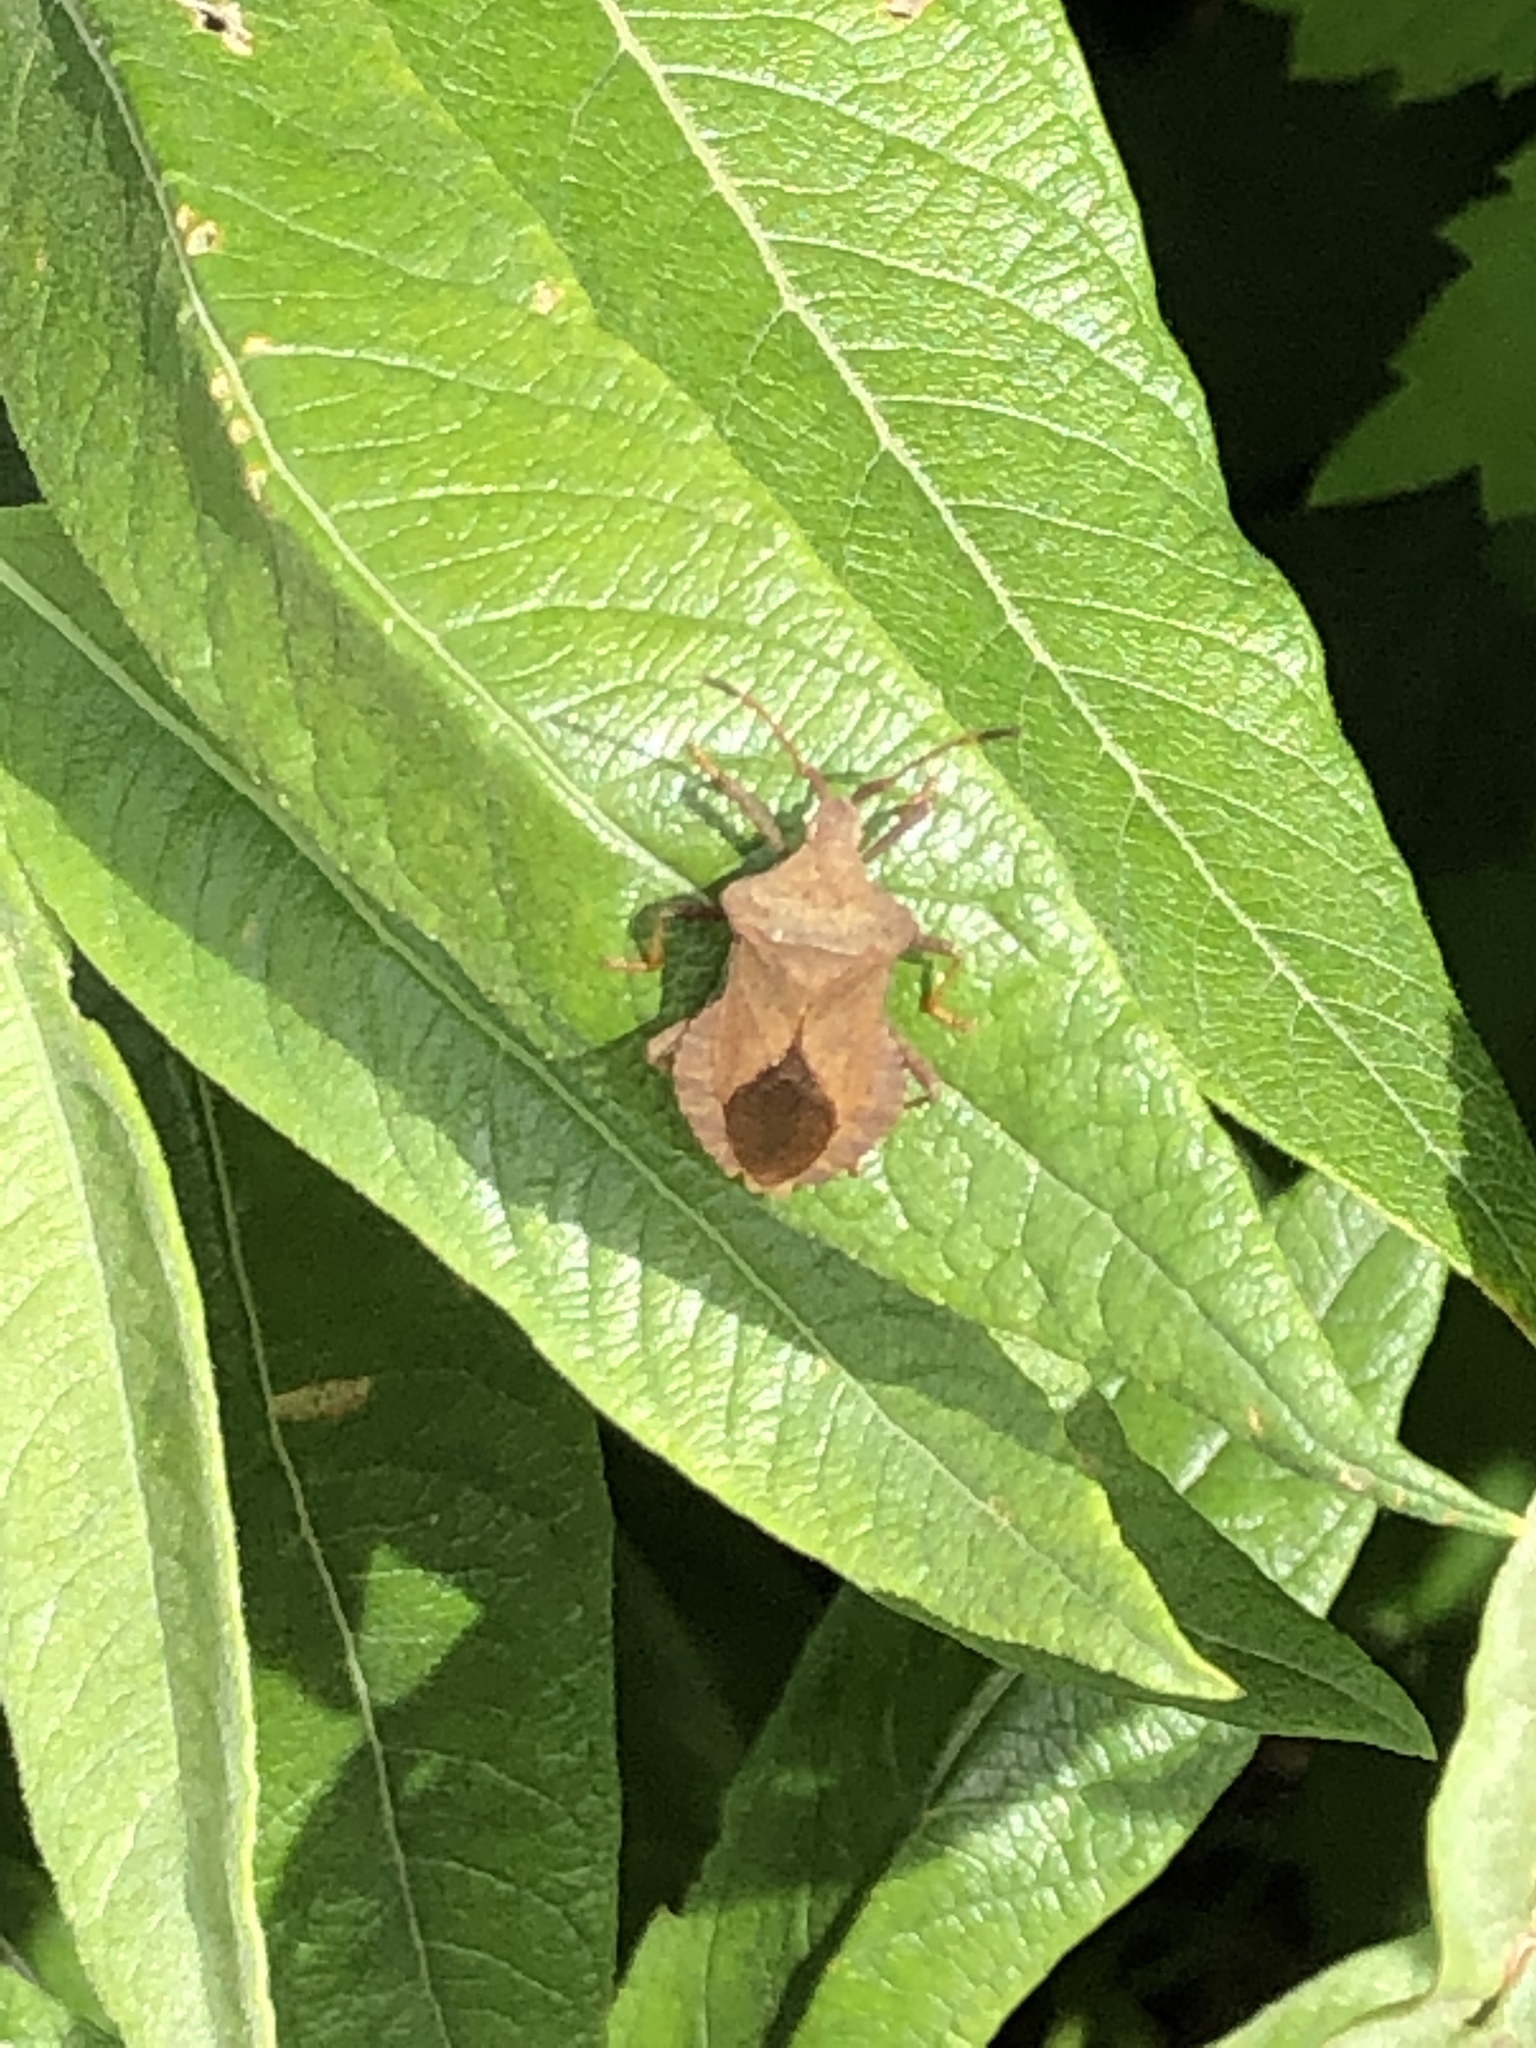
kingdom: Animalia
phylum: Arthropoda
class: Insecta
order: Hemiptera
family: Coreidae
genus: Coreus
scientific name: Coreus marginatus
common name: Dock bug
